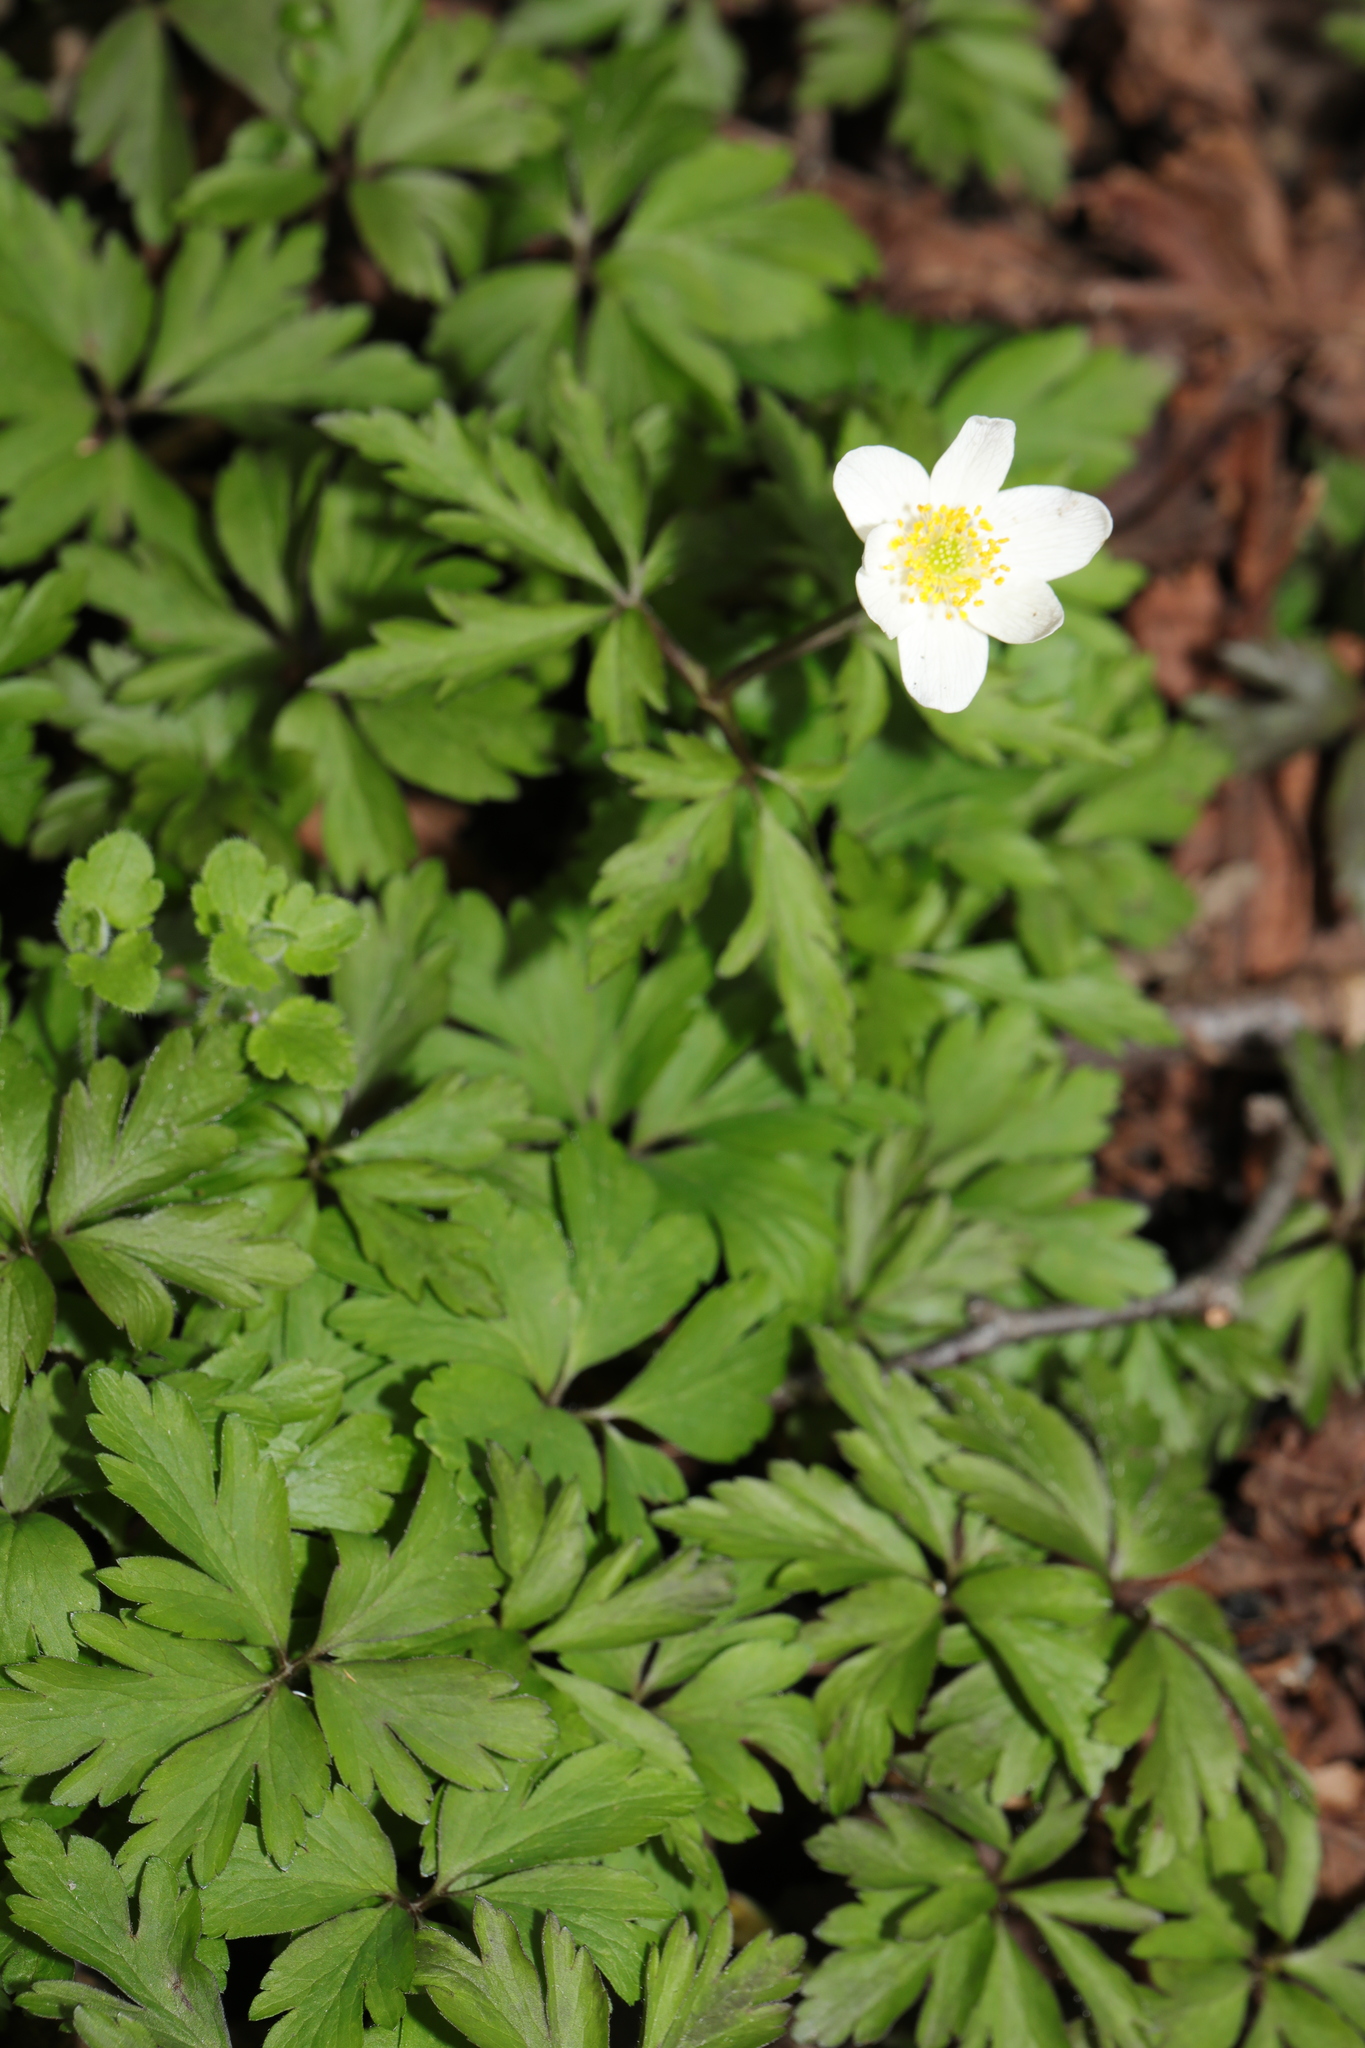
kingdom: Plantae
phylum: Tracheophyta
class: Magnoliopsida
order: Ranunculales
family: Ranunculaceae
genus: Anemone
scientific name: Anemone nemorosa
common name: Wood anemone
